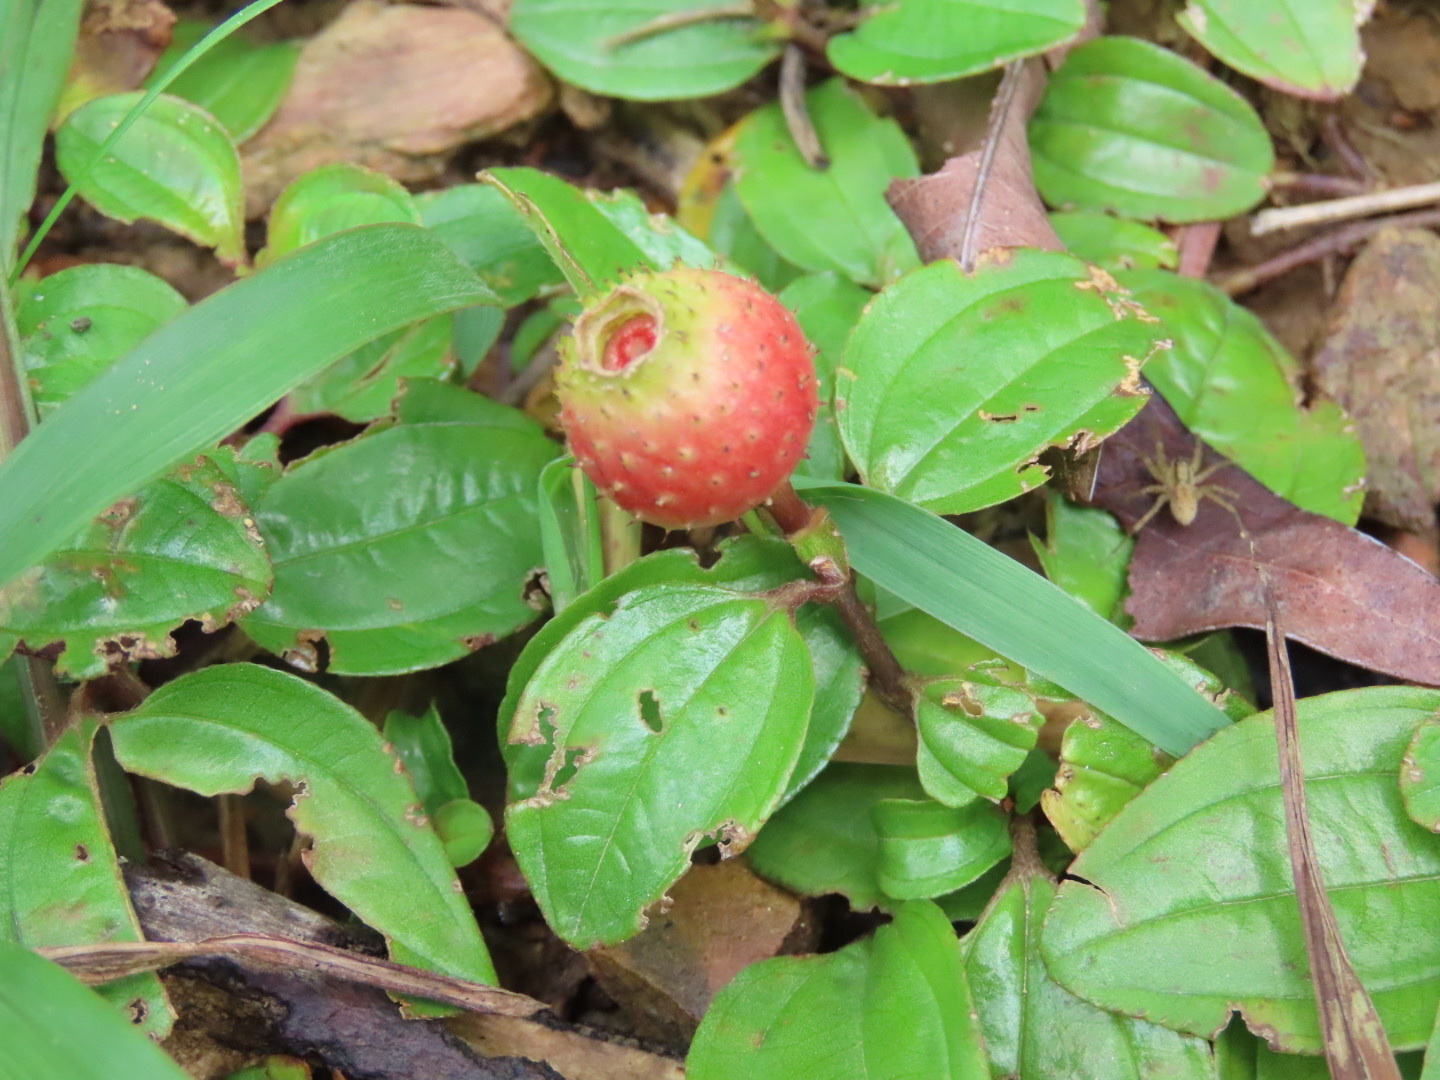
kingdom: Plantae
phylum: Tracheophyta
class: Magnoliopsida
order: Myrtales
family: Melastomataceae
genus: Melastoma
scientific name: Melastoma dodecandrum
